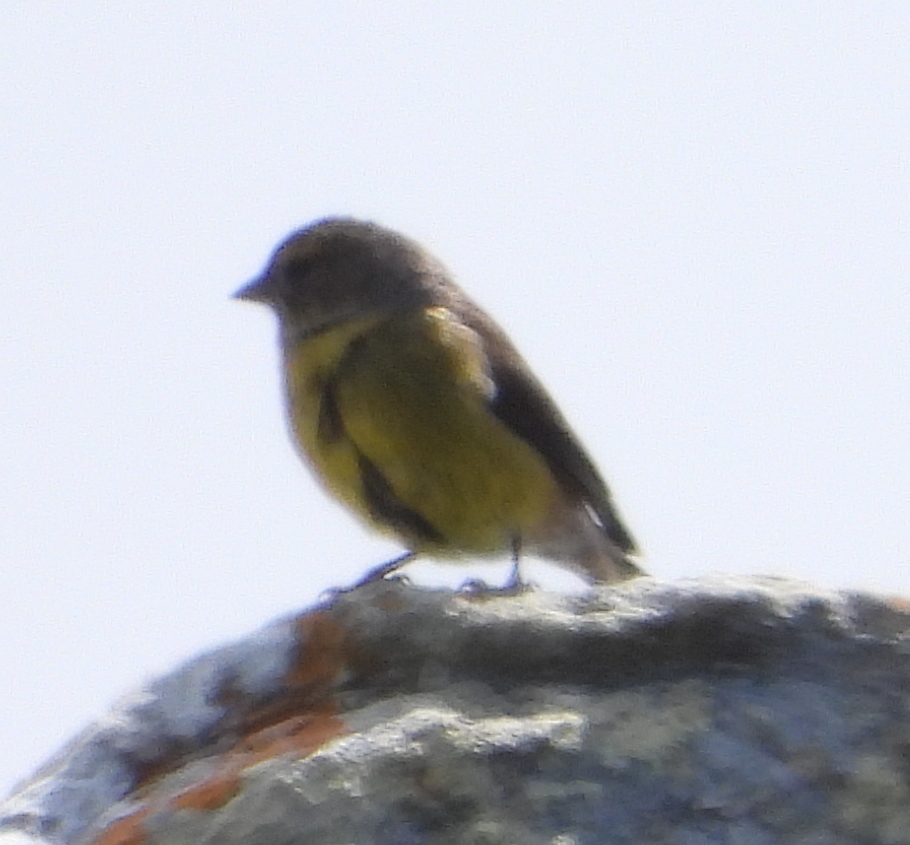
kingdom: Animalia
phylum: Chordata
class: Aves
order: Passeriformes
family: Fringillidae
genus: Crithagra
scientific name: Crithagra totta
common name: Cape siskin
